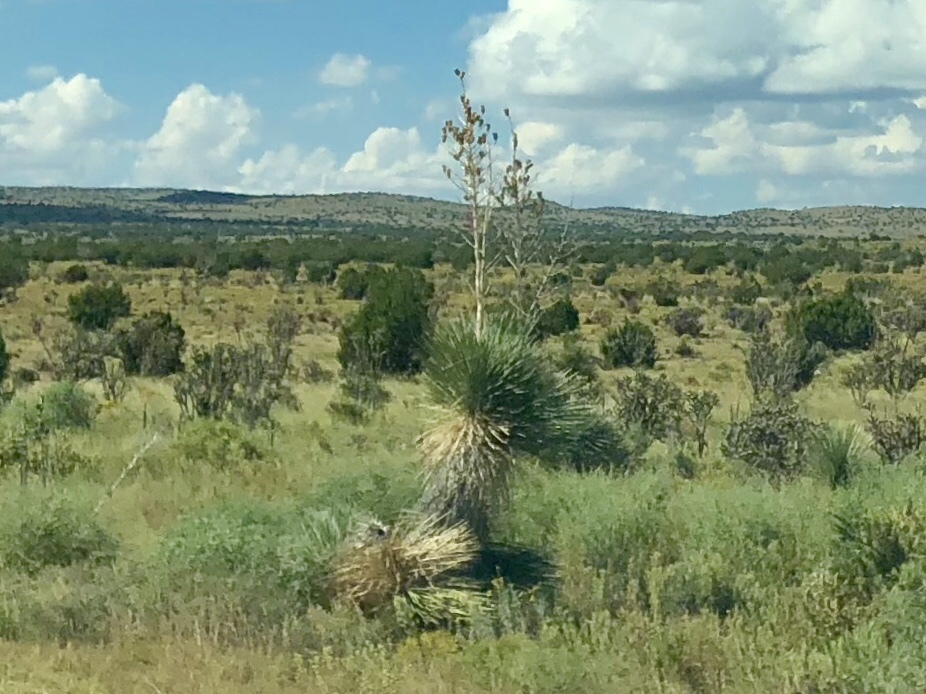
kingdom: Plantae
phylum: Tracheophyta
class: Liliopsida
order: Asparagales
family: Asparagaceae
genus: Yucca
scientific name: Yucca elata
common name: Palmella
